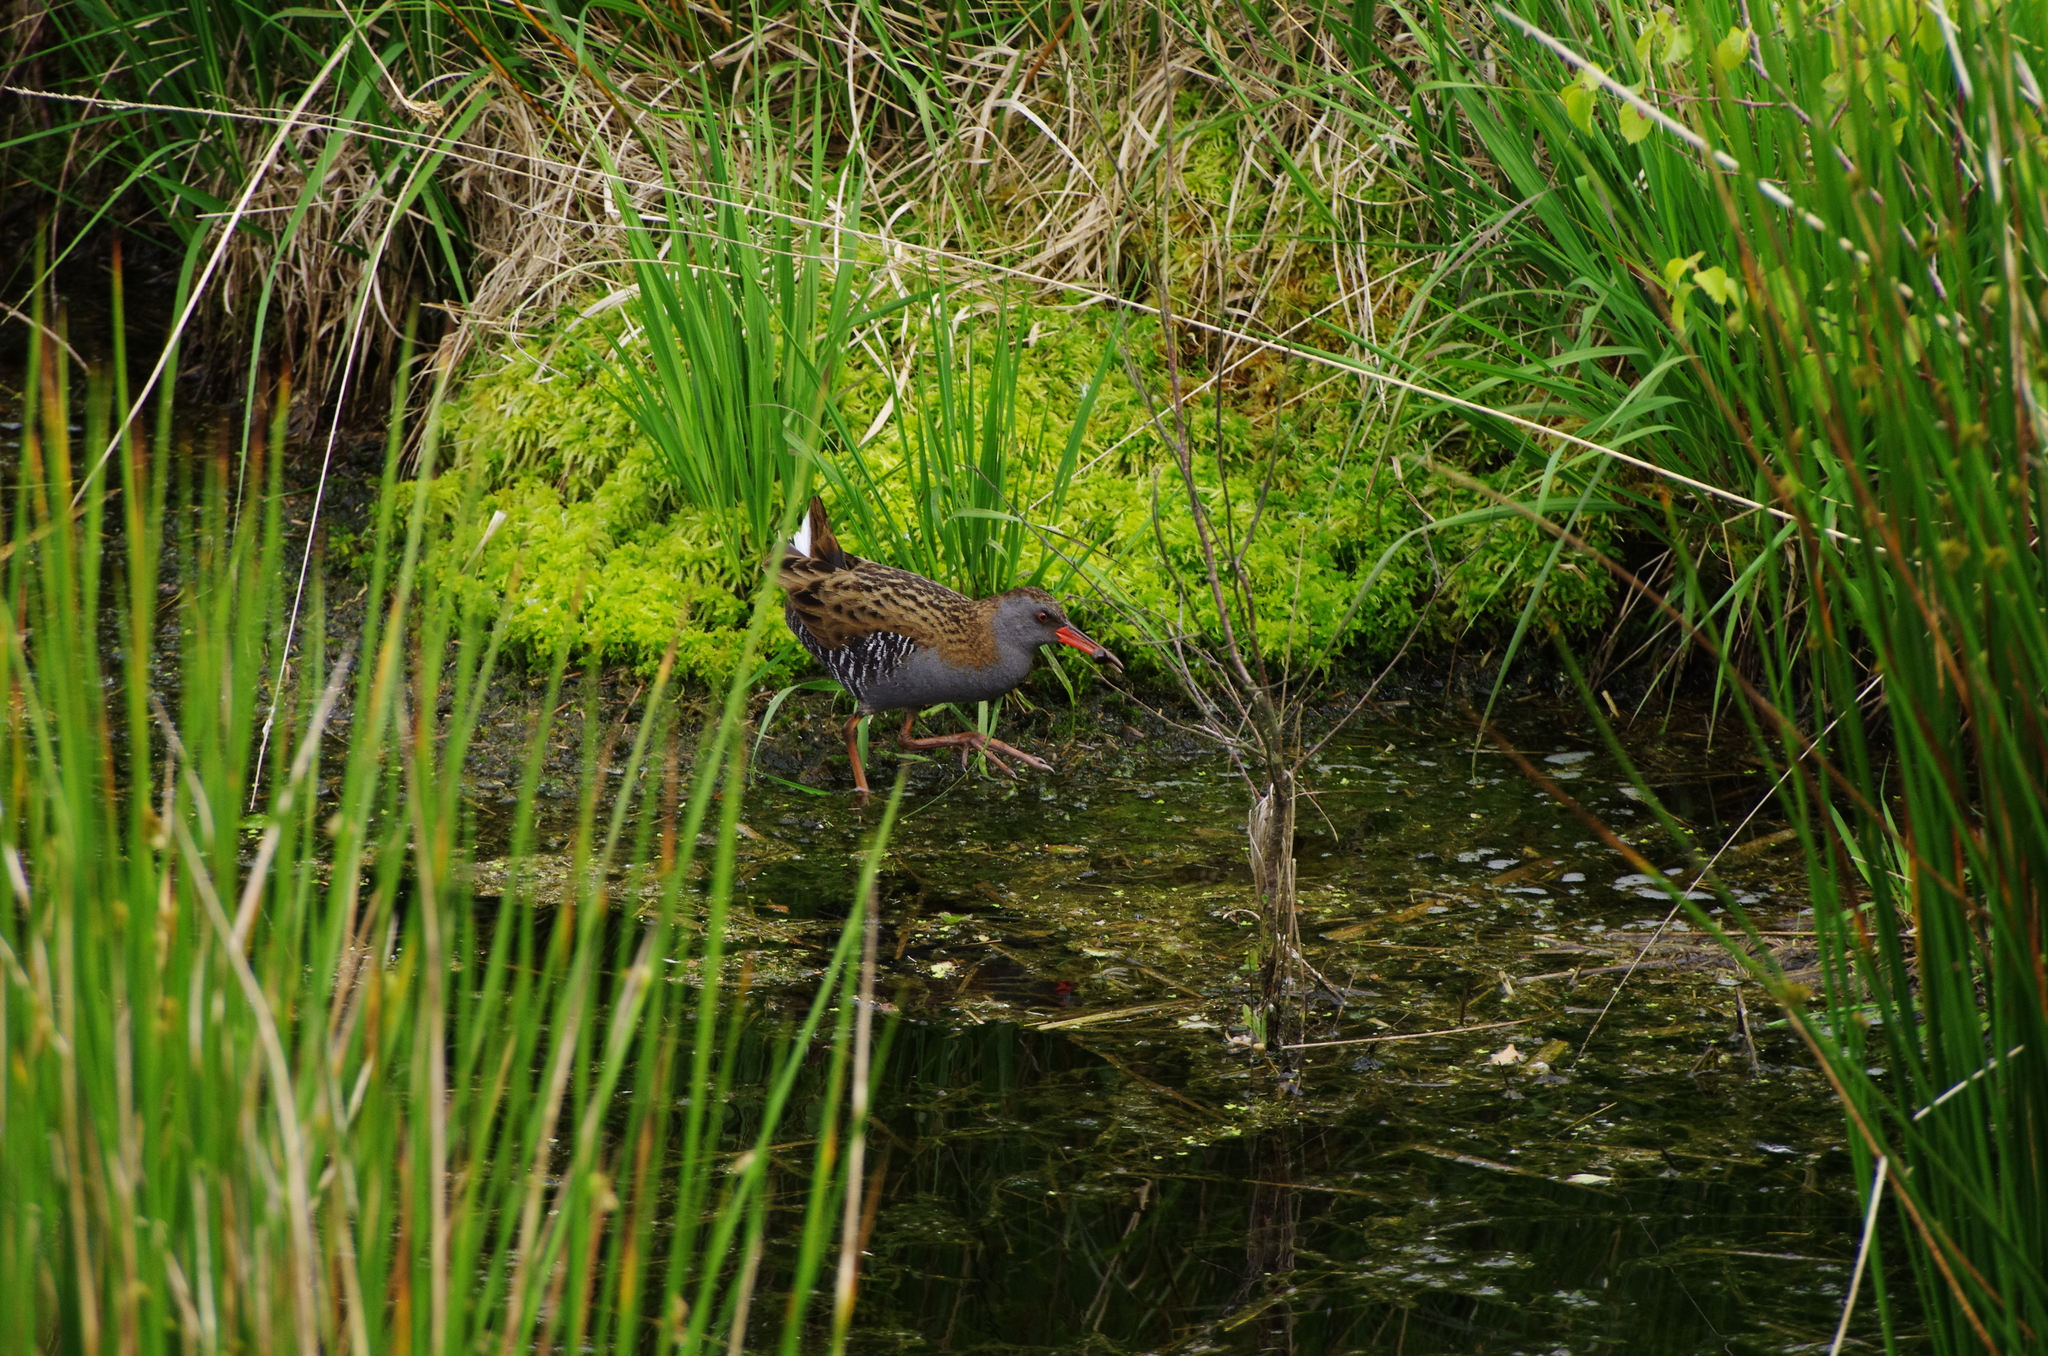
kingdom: Animalia
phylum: Chordata
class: Aves
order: Gruiformes
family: Rallidae
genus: Rallus
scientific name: Rallus aquaticus
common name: Water rail
